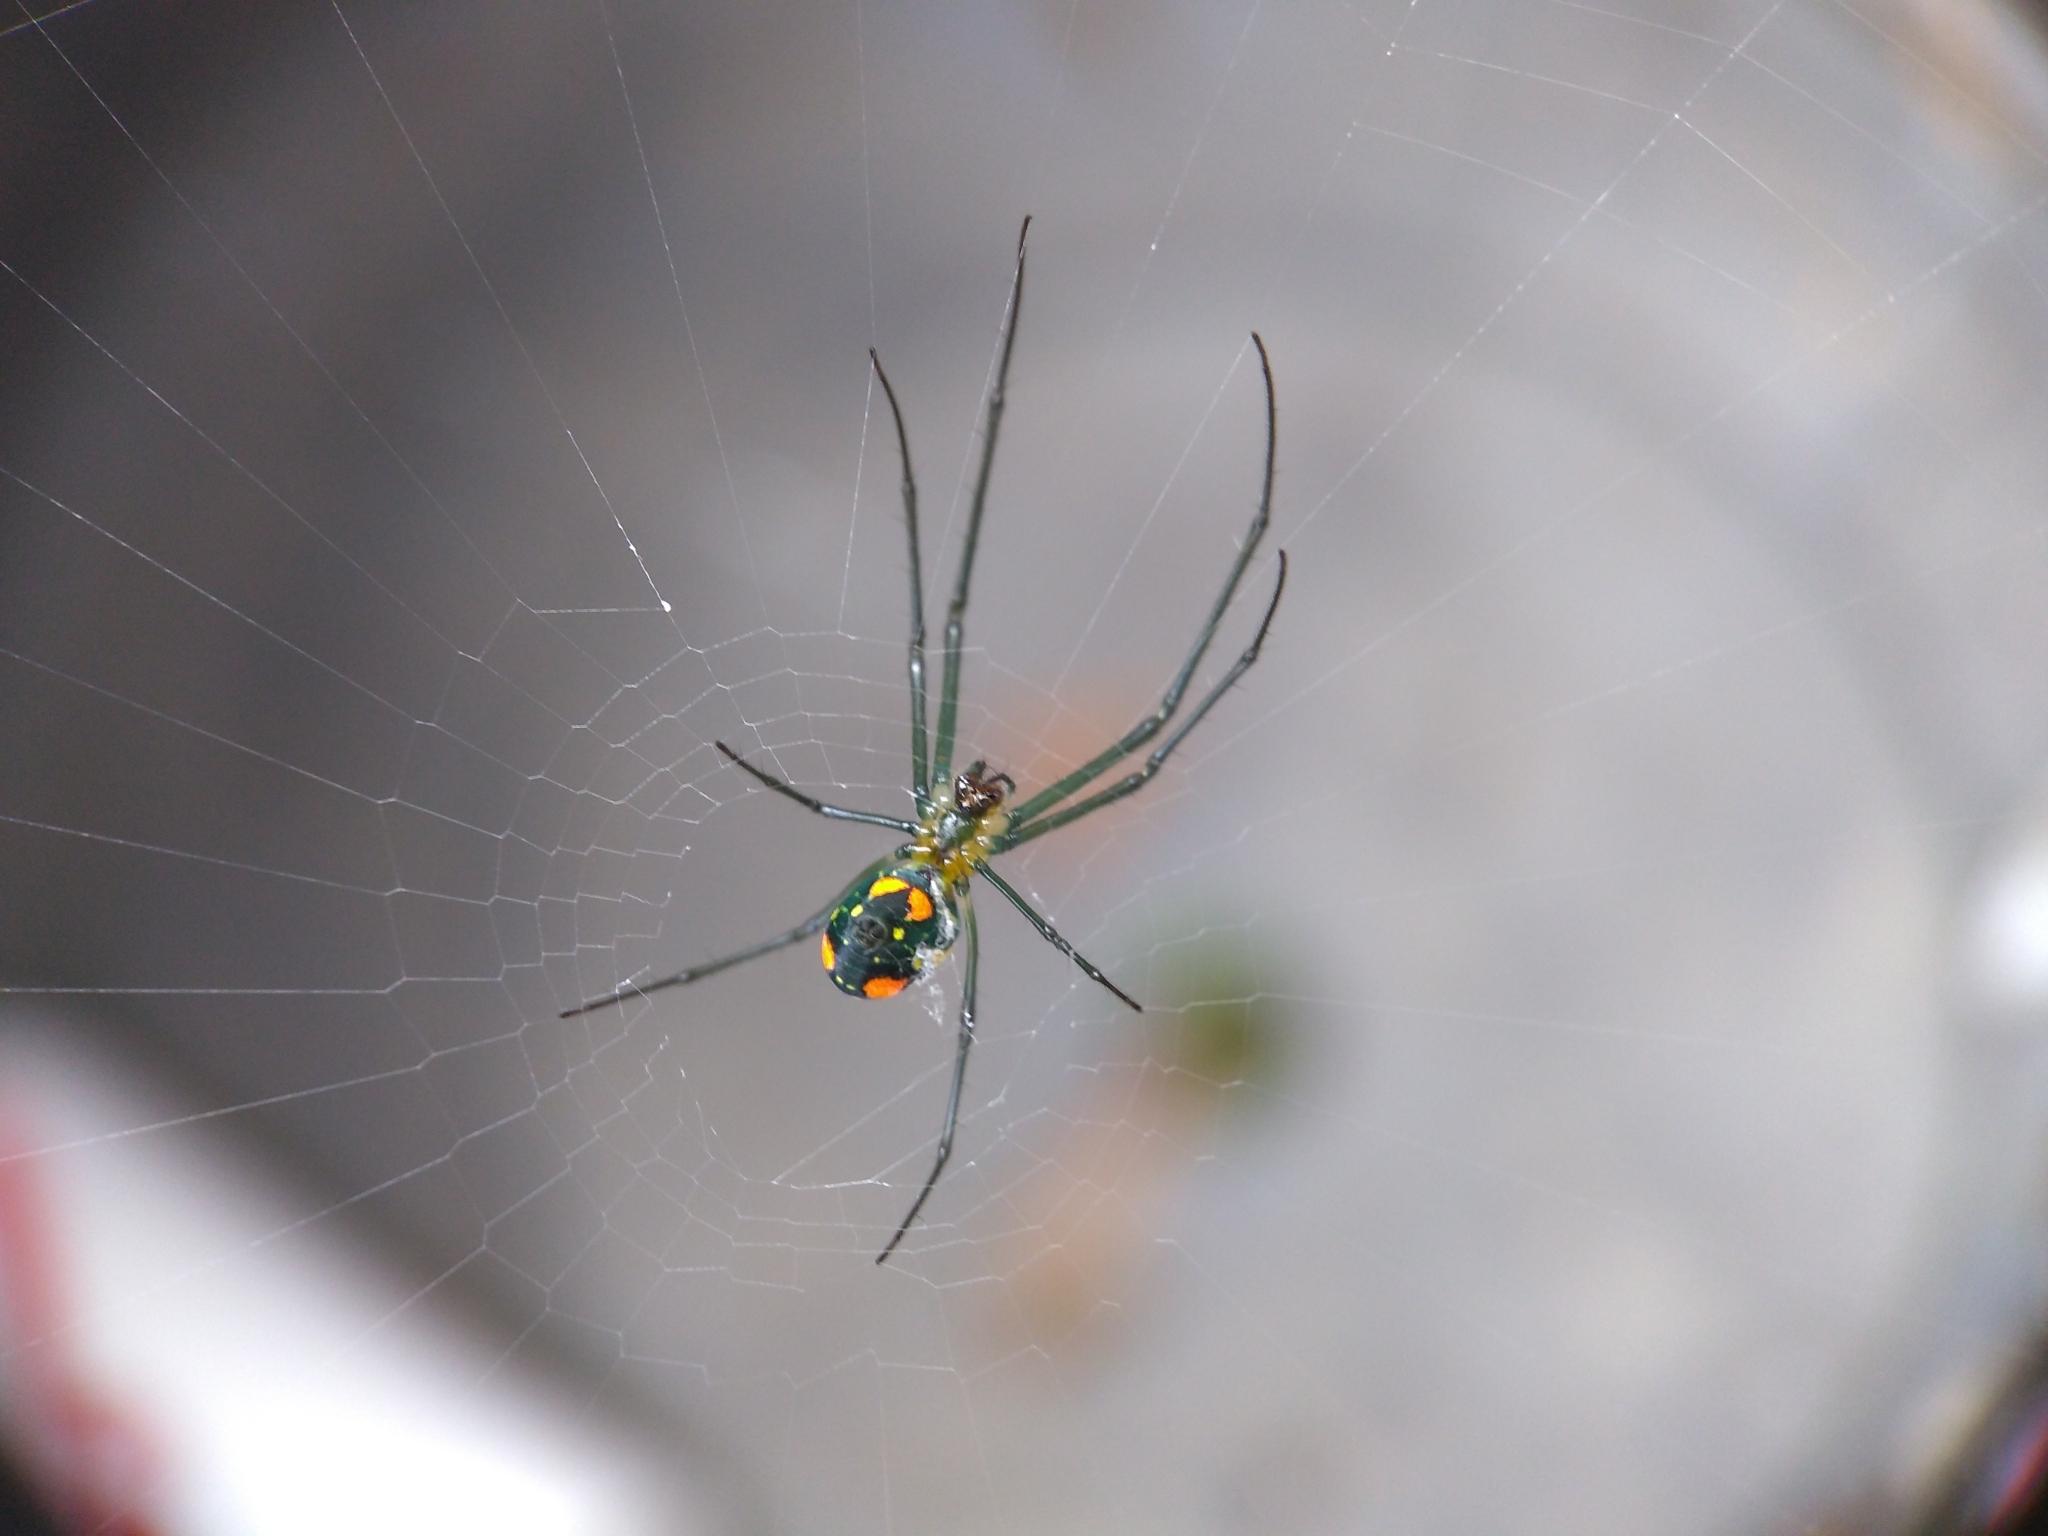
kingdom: Animalia
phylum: Arthropoda
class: Arachnida
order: Araneae
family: Tetragnathidae
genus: Leucauge
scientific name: Leucauge argyrobapta
